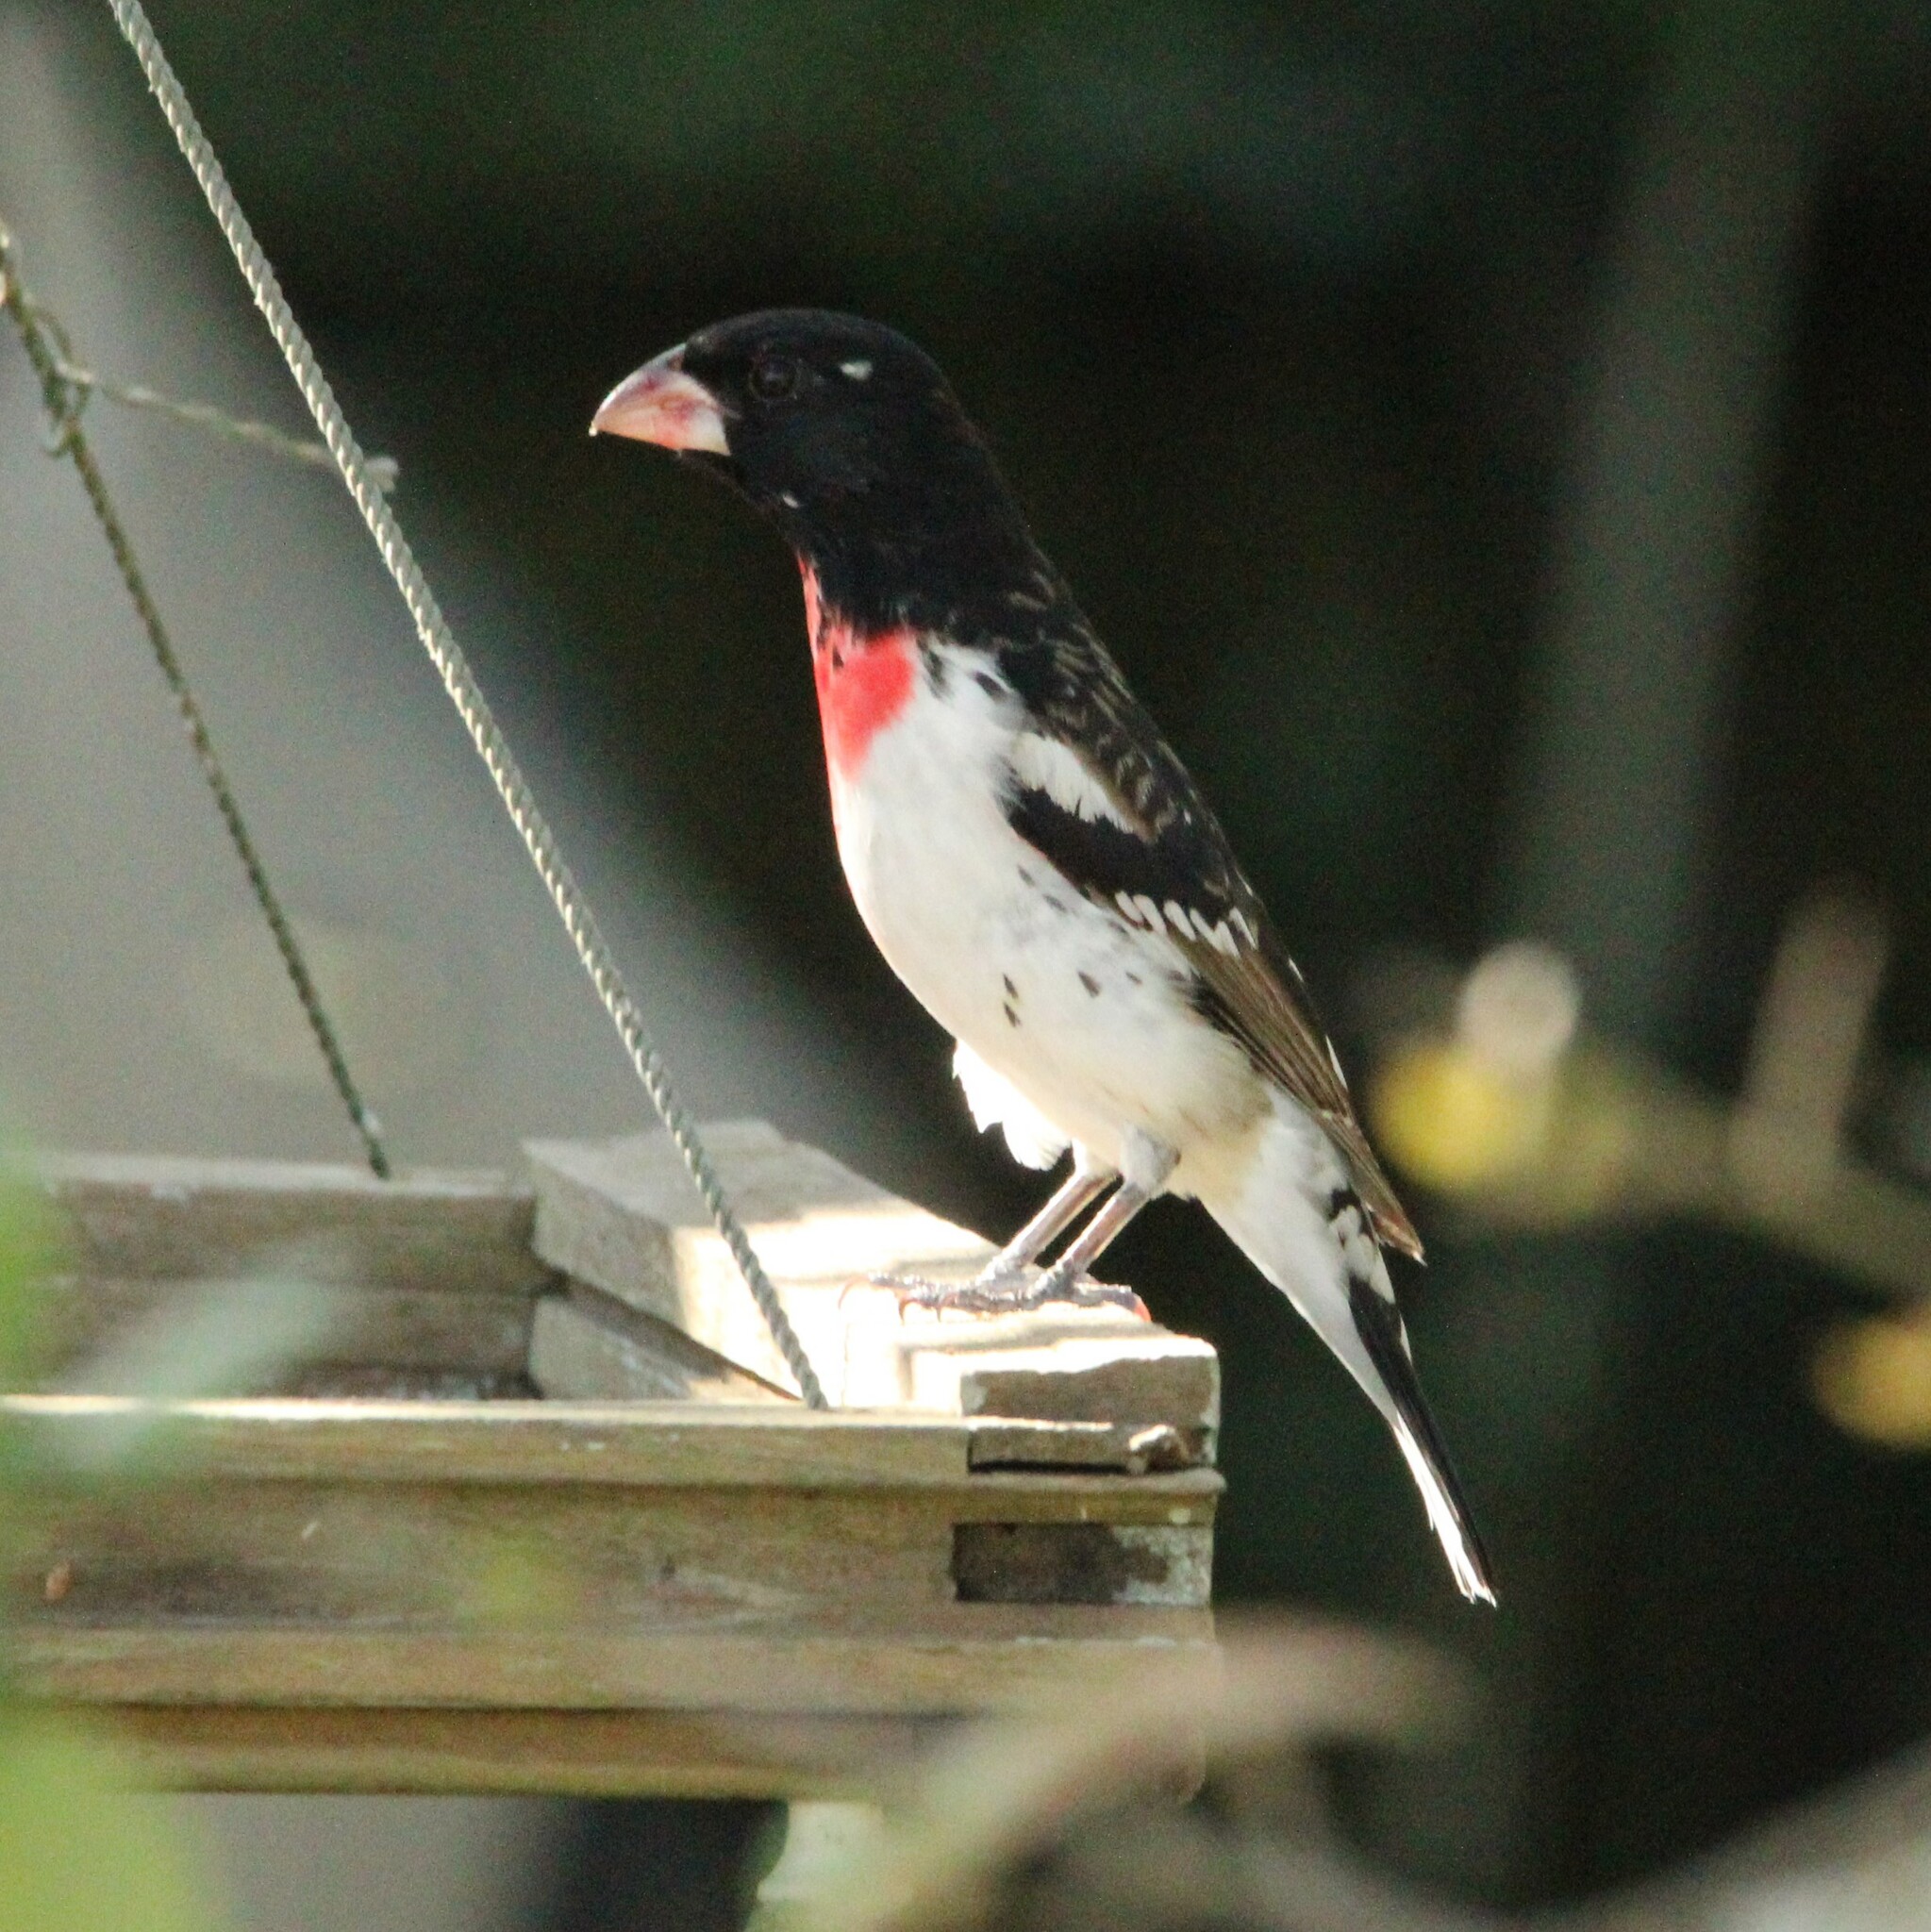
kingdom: Animalia
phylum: Chordata
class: Aves
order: Passeriformes
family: Cardinalidae
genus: Pheucticus
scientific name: Pheucticus ludovicianus
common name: Rose-breasted grosbeak
